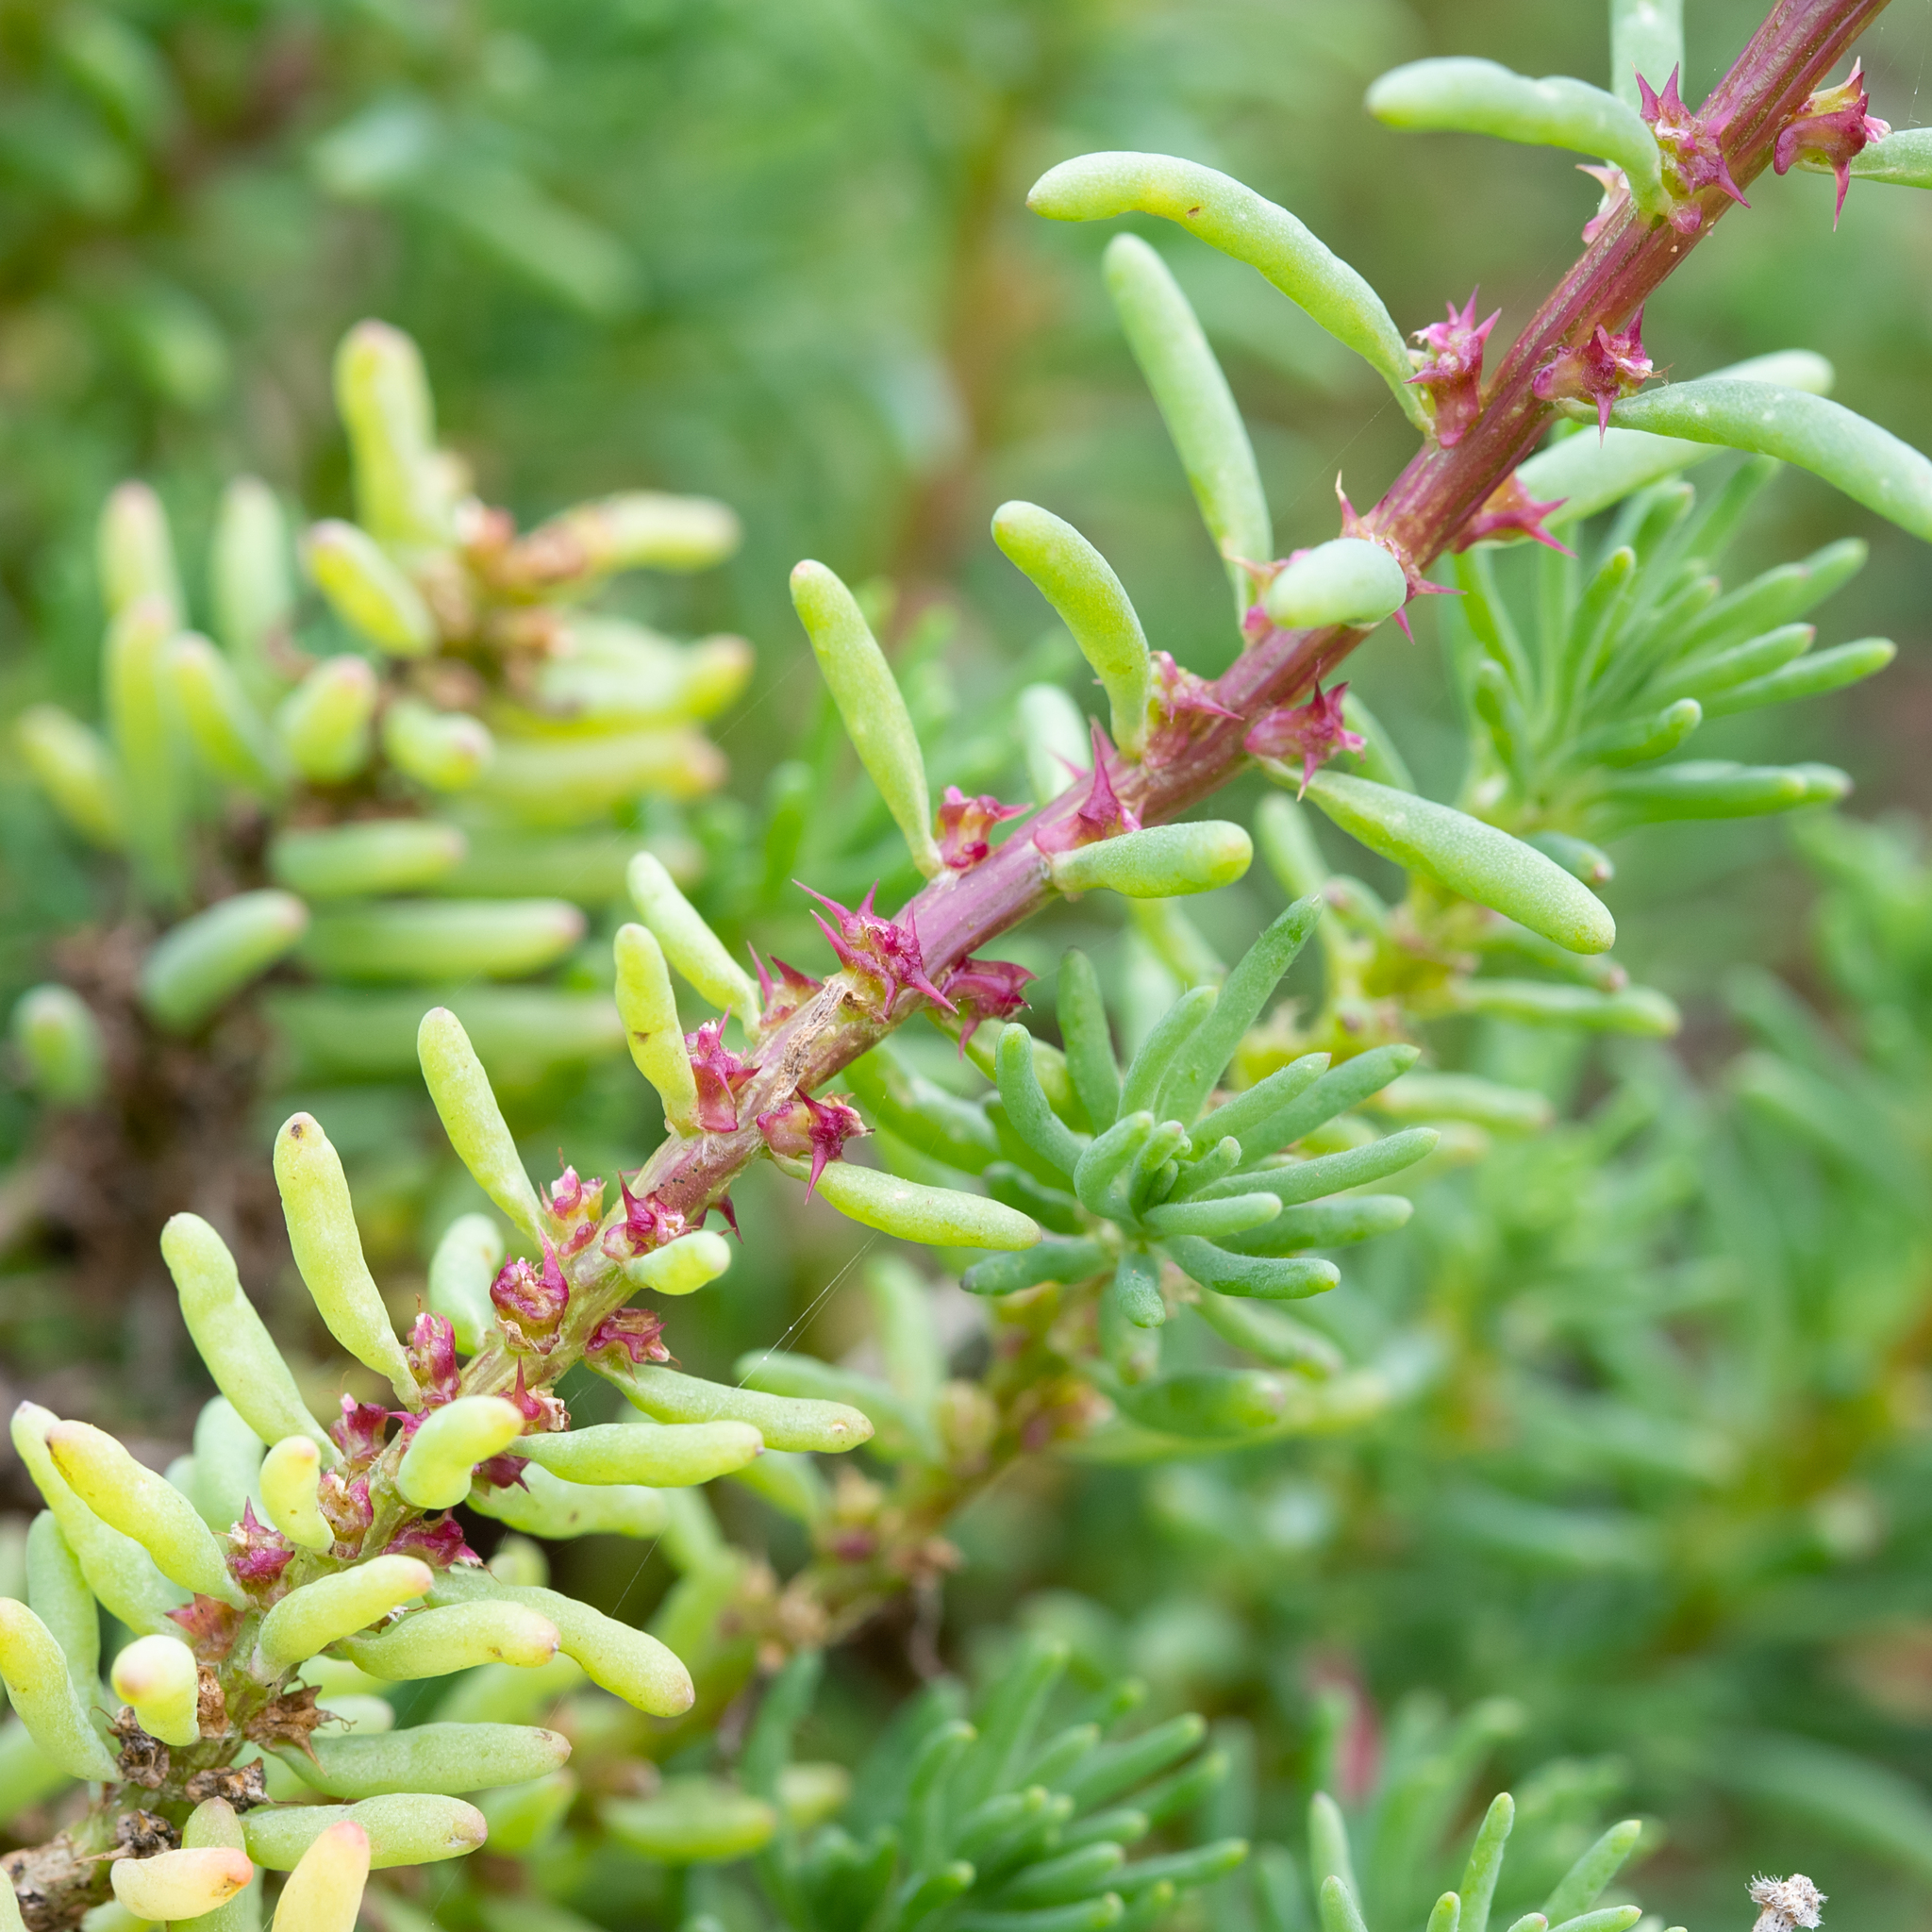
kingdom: Plantae
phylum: Tracheophyta
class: Magnoliopsida
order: Caryophyllales
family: Amaranthaceae
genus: Sclerolaena
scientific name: Sclerolaena calcarata
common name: Red copperbur
